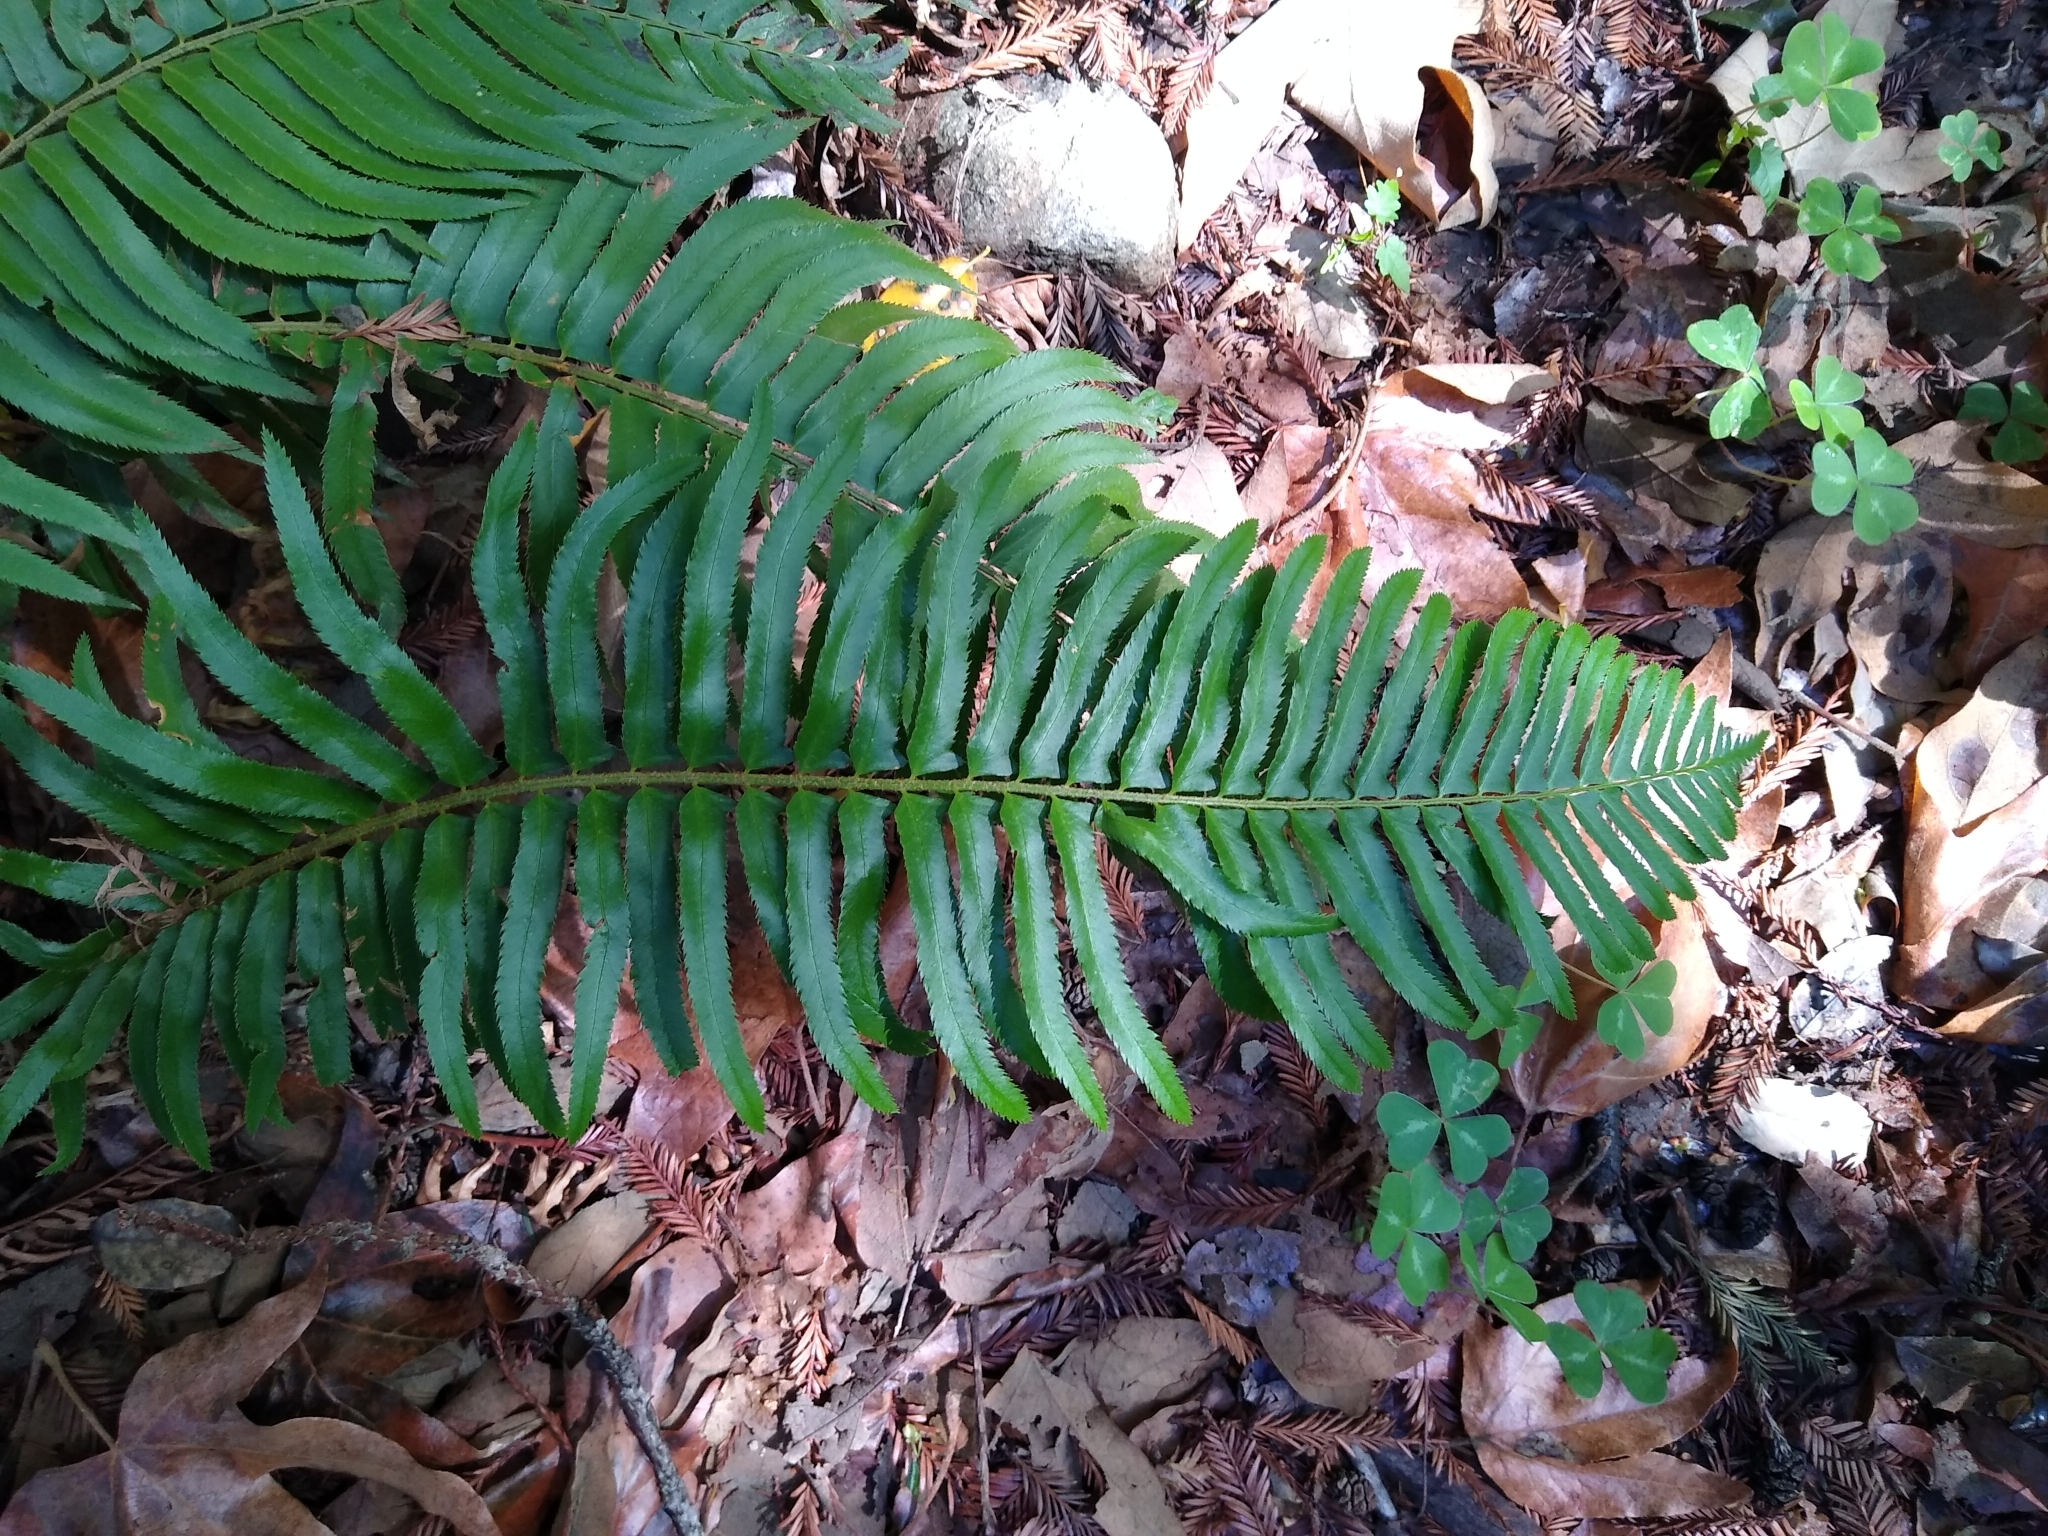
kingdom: Plantae
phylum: Tracheophyta
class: Polypodiopsida
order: Polypodiales
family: Dryopteridaceae
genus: Polystichum
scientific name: Polystichum munitum
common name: Western sword-fern
